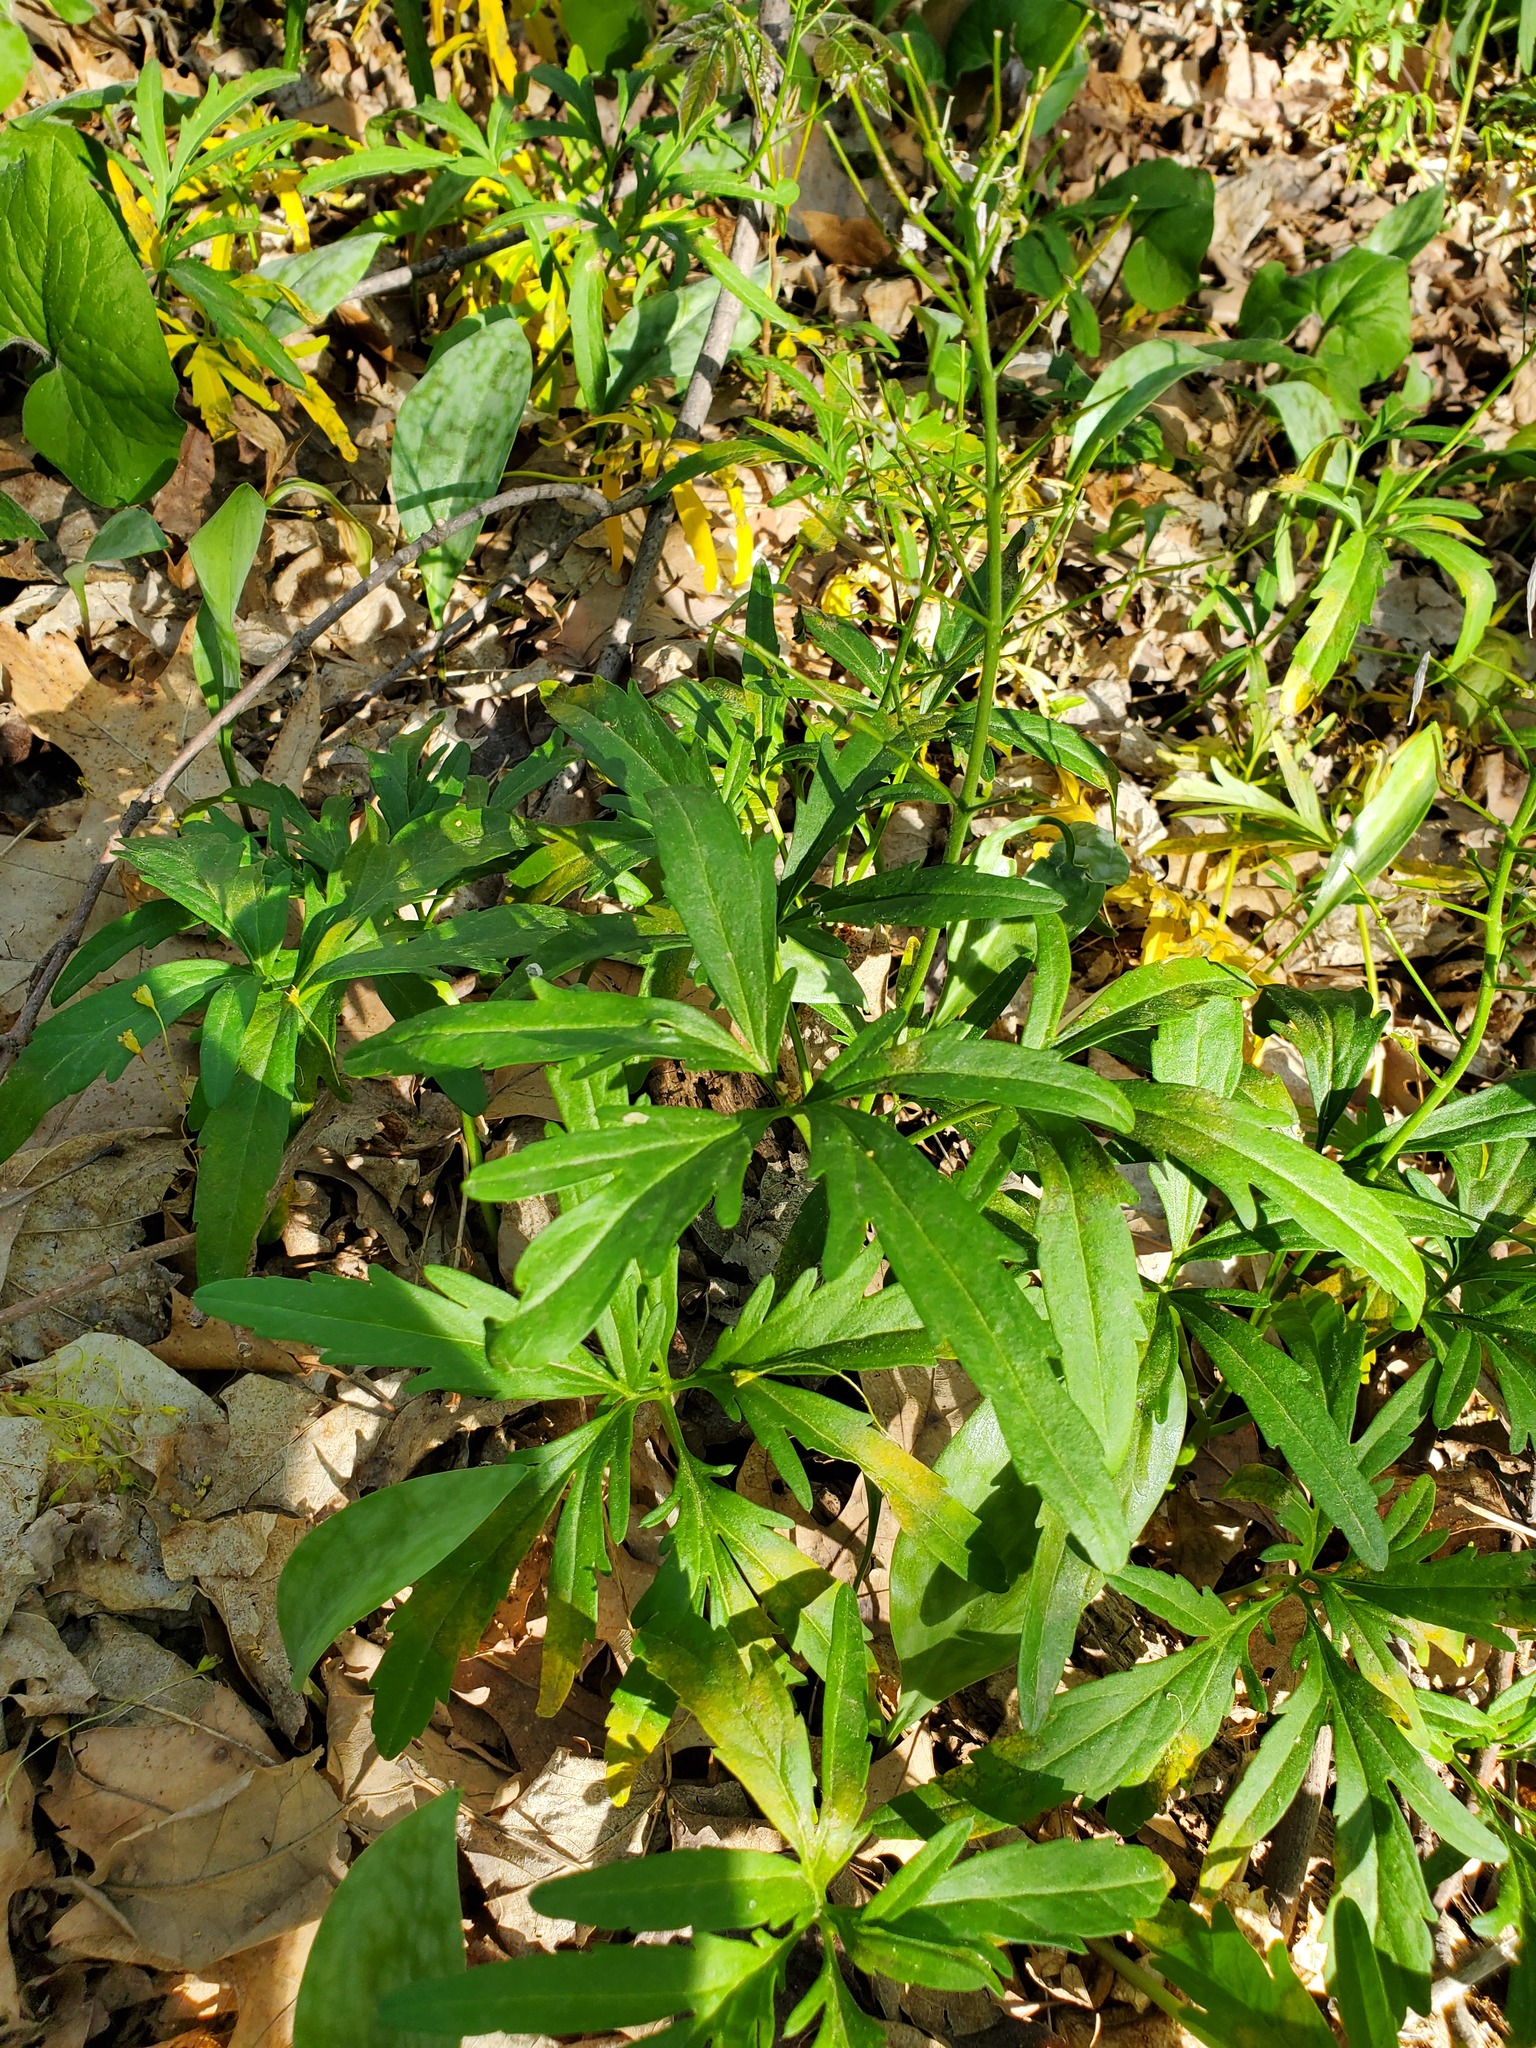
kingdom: Plantae
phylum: Tracheophyta
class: Magnoliopsida
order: Brassicales
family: Brassicaceae
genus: Cardamine
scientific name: Cardamine concatenata
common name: Cut-leaf toothcup
